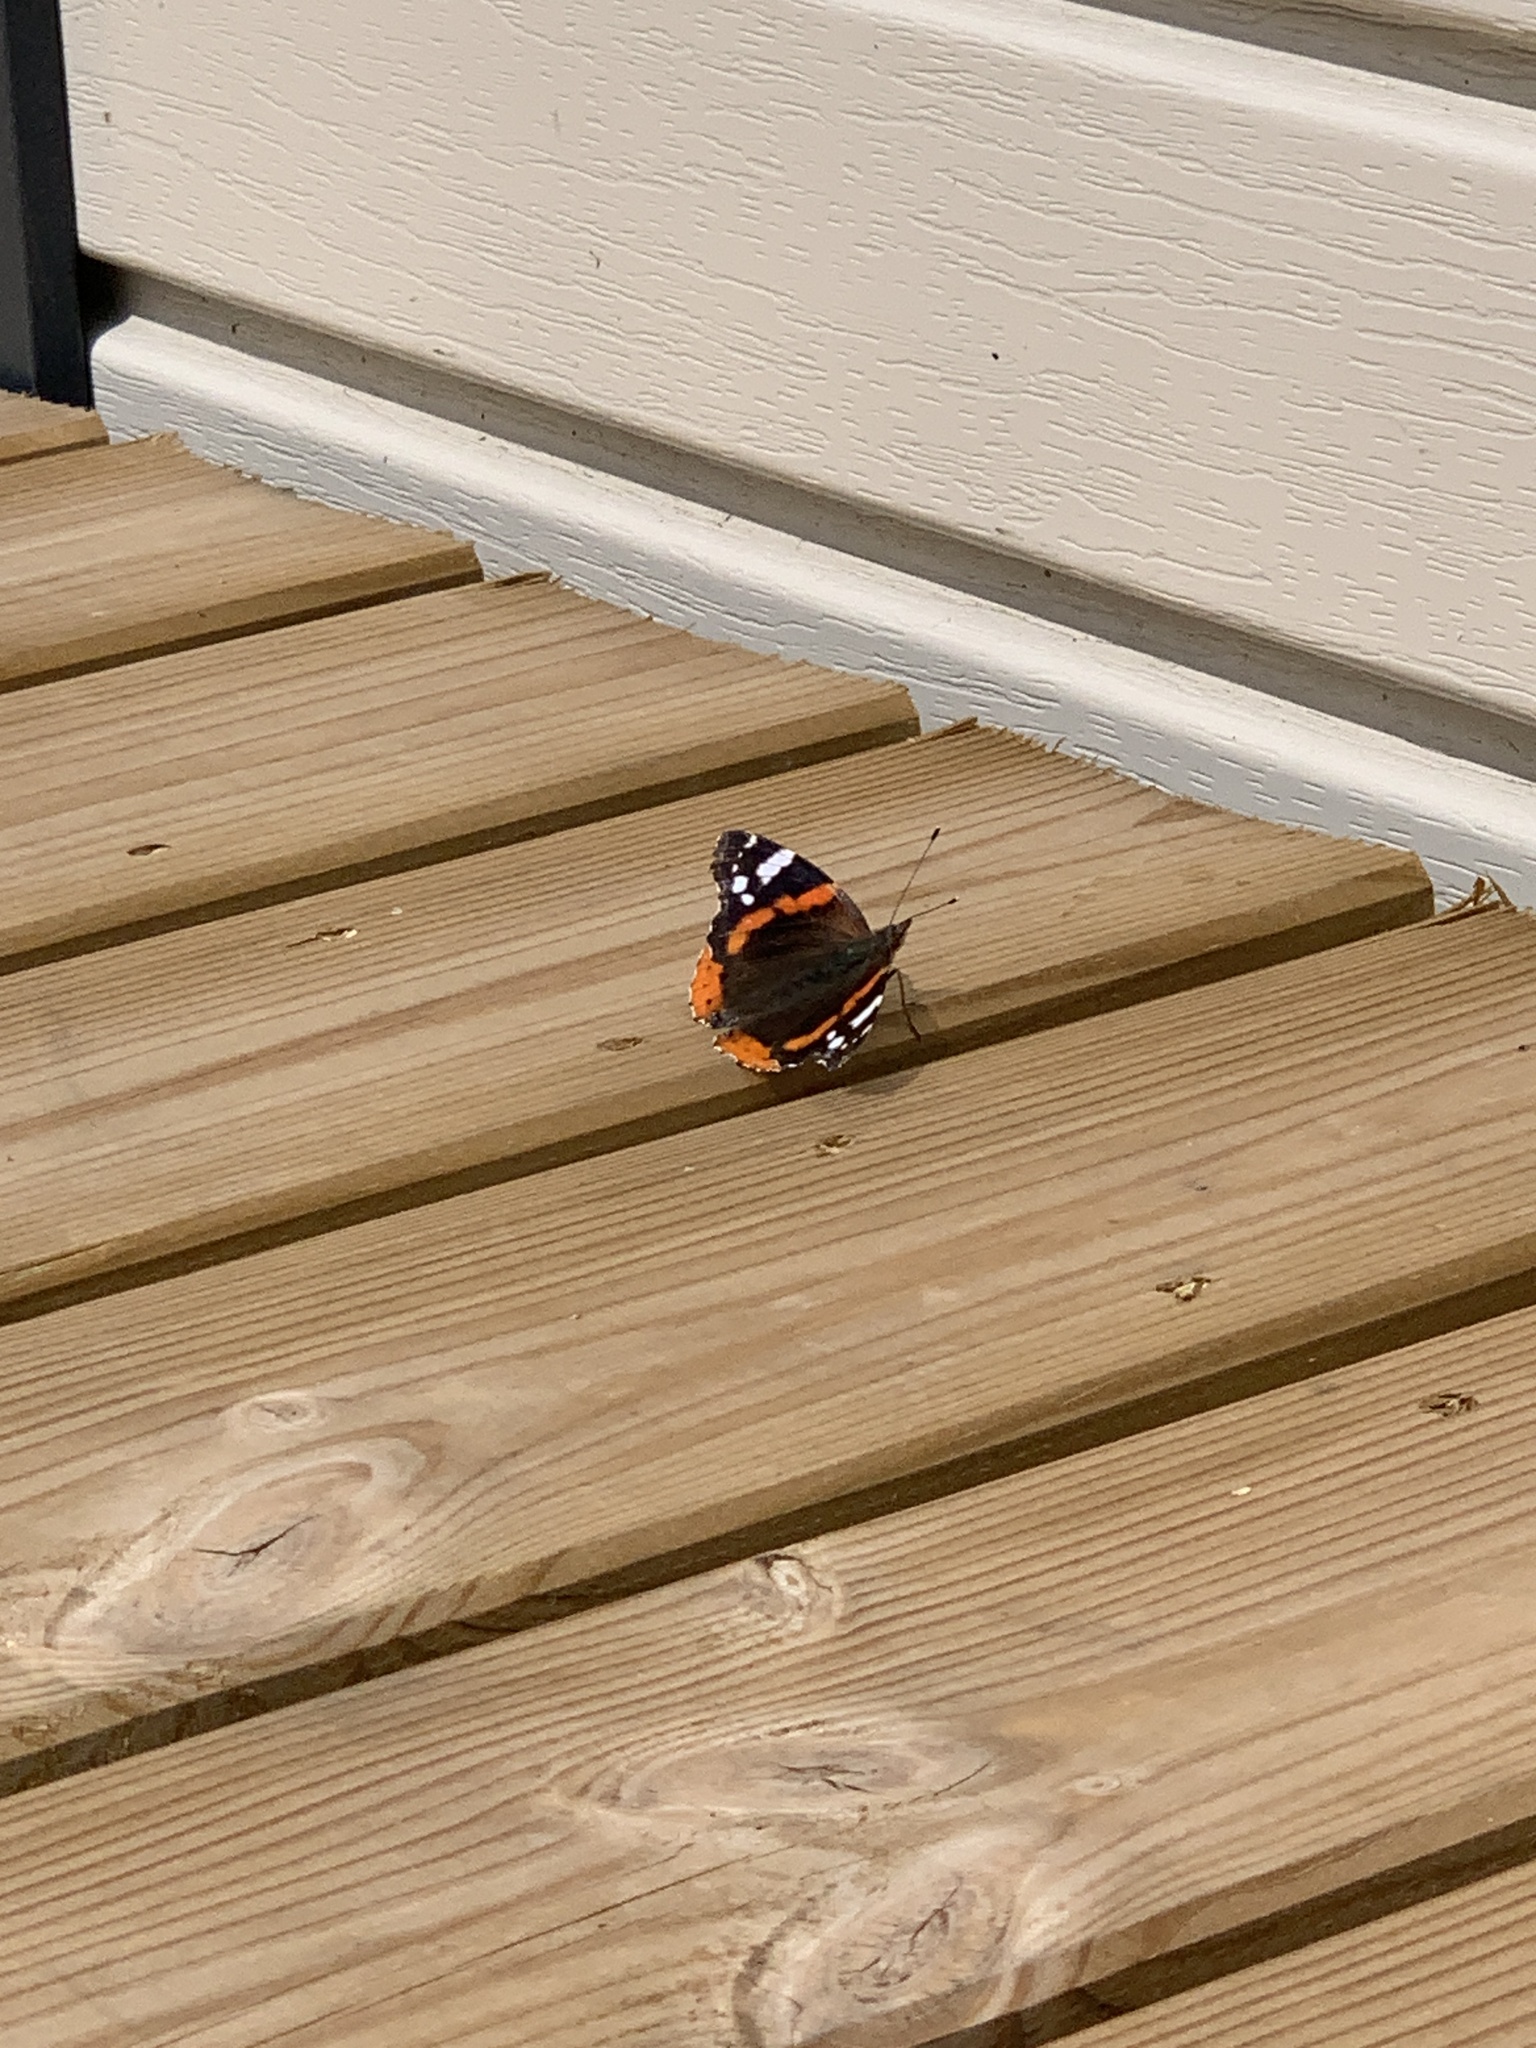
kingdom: Animalia
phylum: Arthropoda
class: Insecta
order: Lepidoptera
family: Nymphalidae
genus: Vanessa
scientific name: Vanessa atalanta
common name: Red admiral
